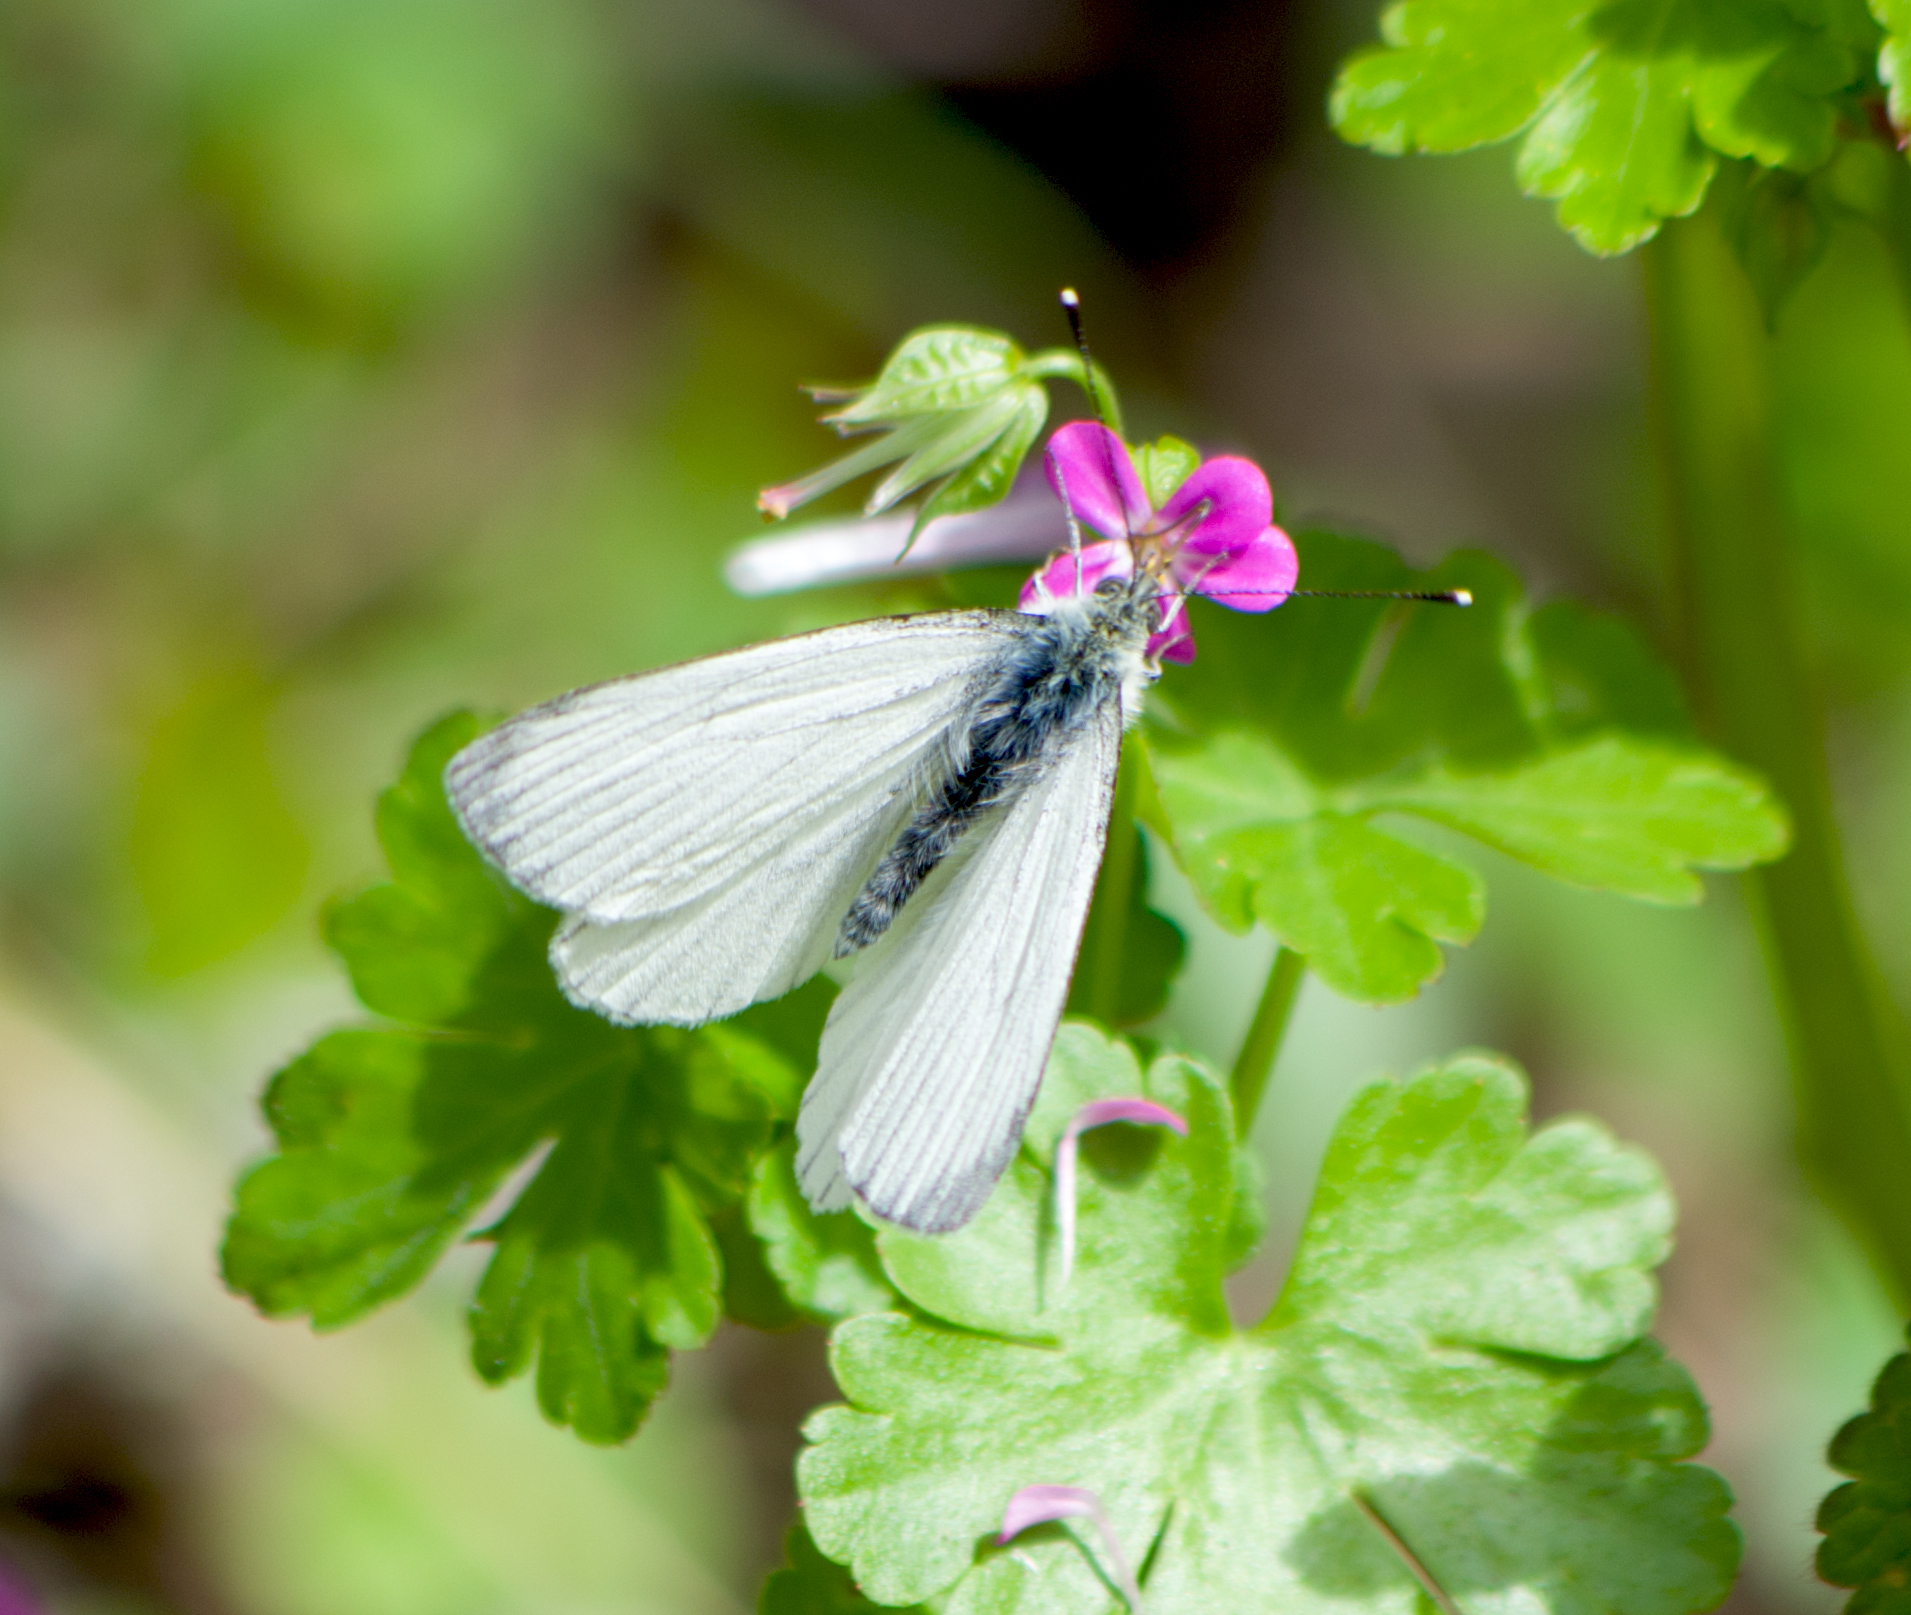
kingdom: Animalia
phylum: Arthropoda
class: Insecta
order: Lepidoptera
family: Pieridae
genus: Pieris
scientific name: Pieris napi
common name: Green-veined white
